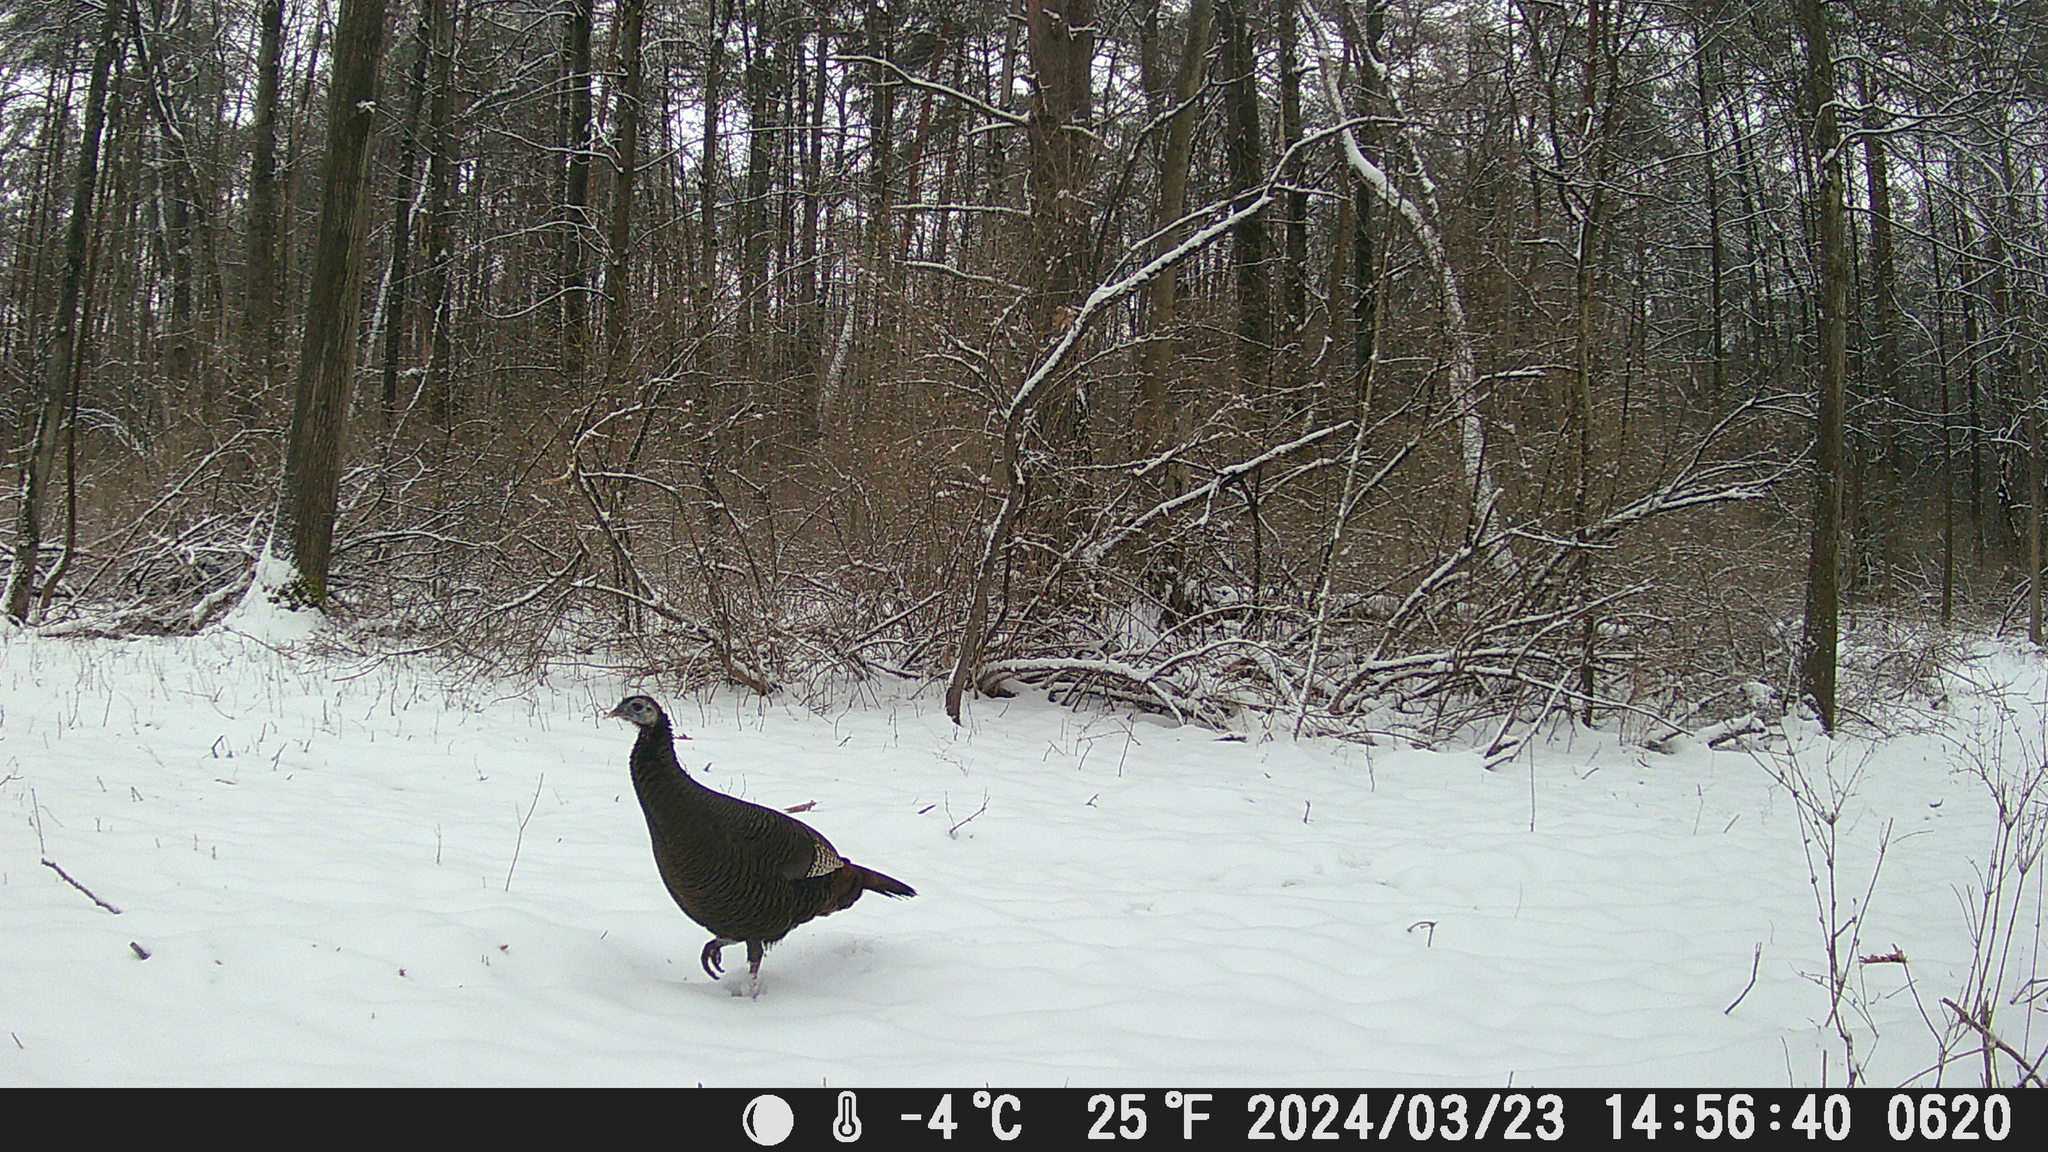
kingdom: Animalia
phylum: Chordata
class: Aves
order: Galliformes
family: Phasianidae
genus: Meleagris
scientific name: Meleagris gallopavo
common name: Wild turkey
